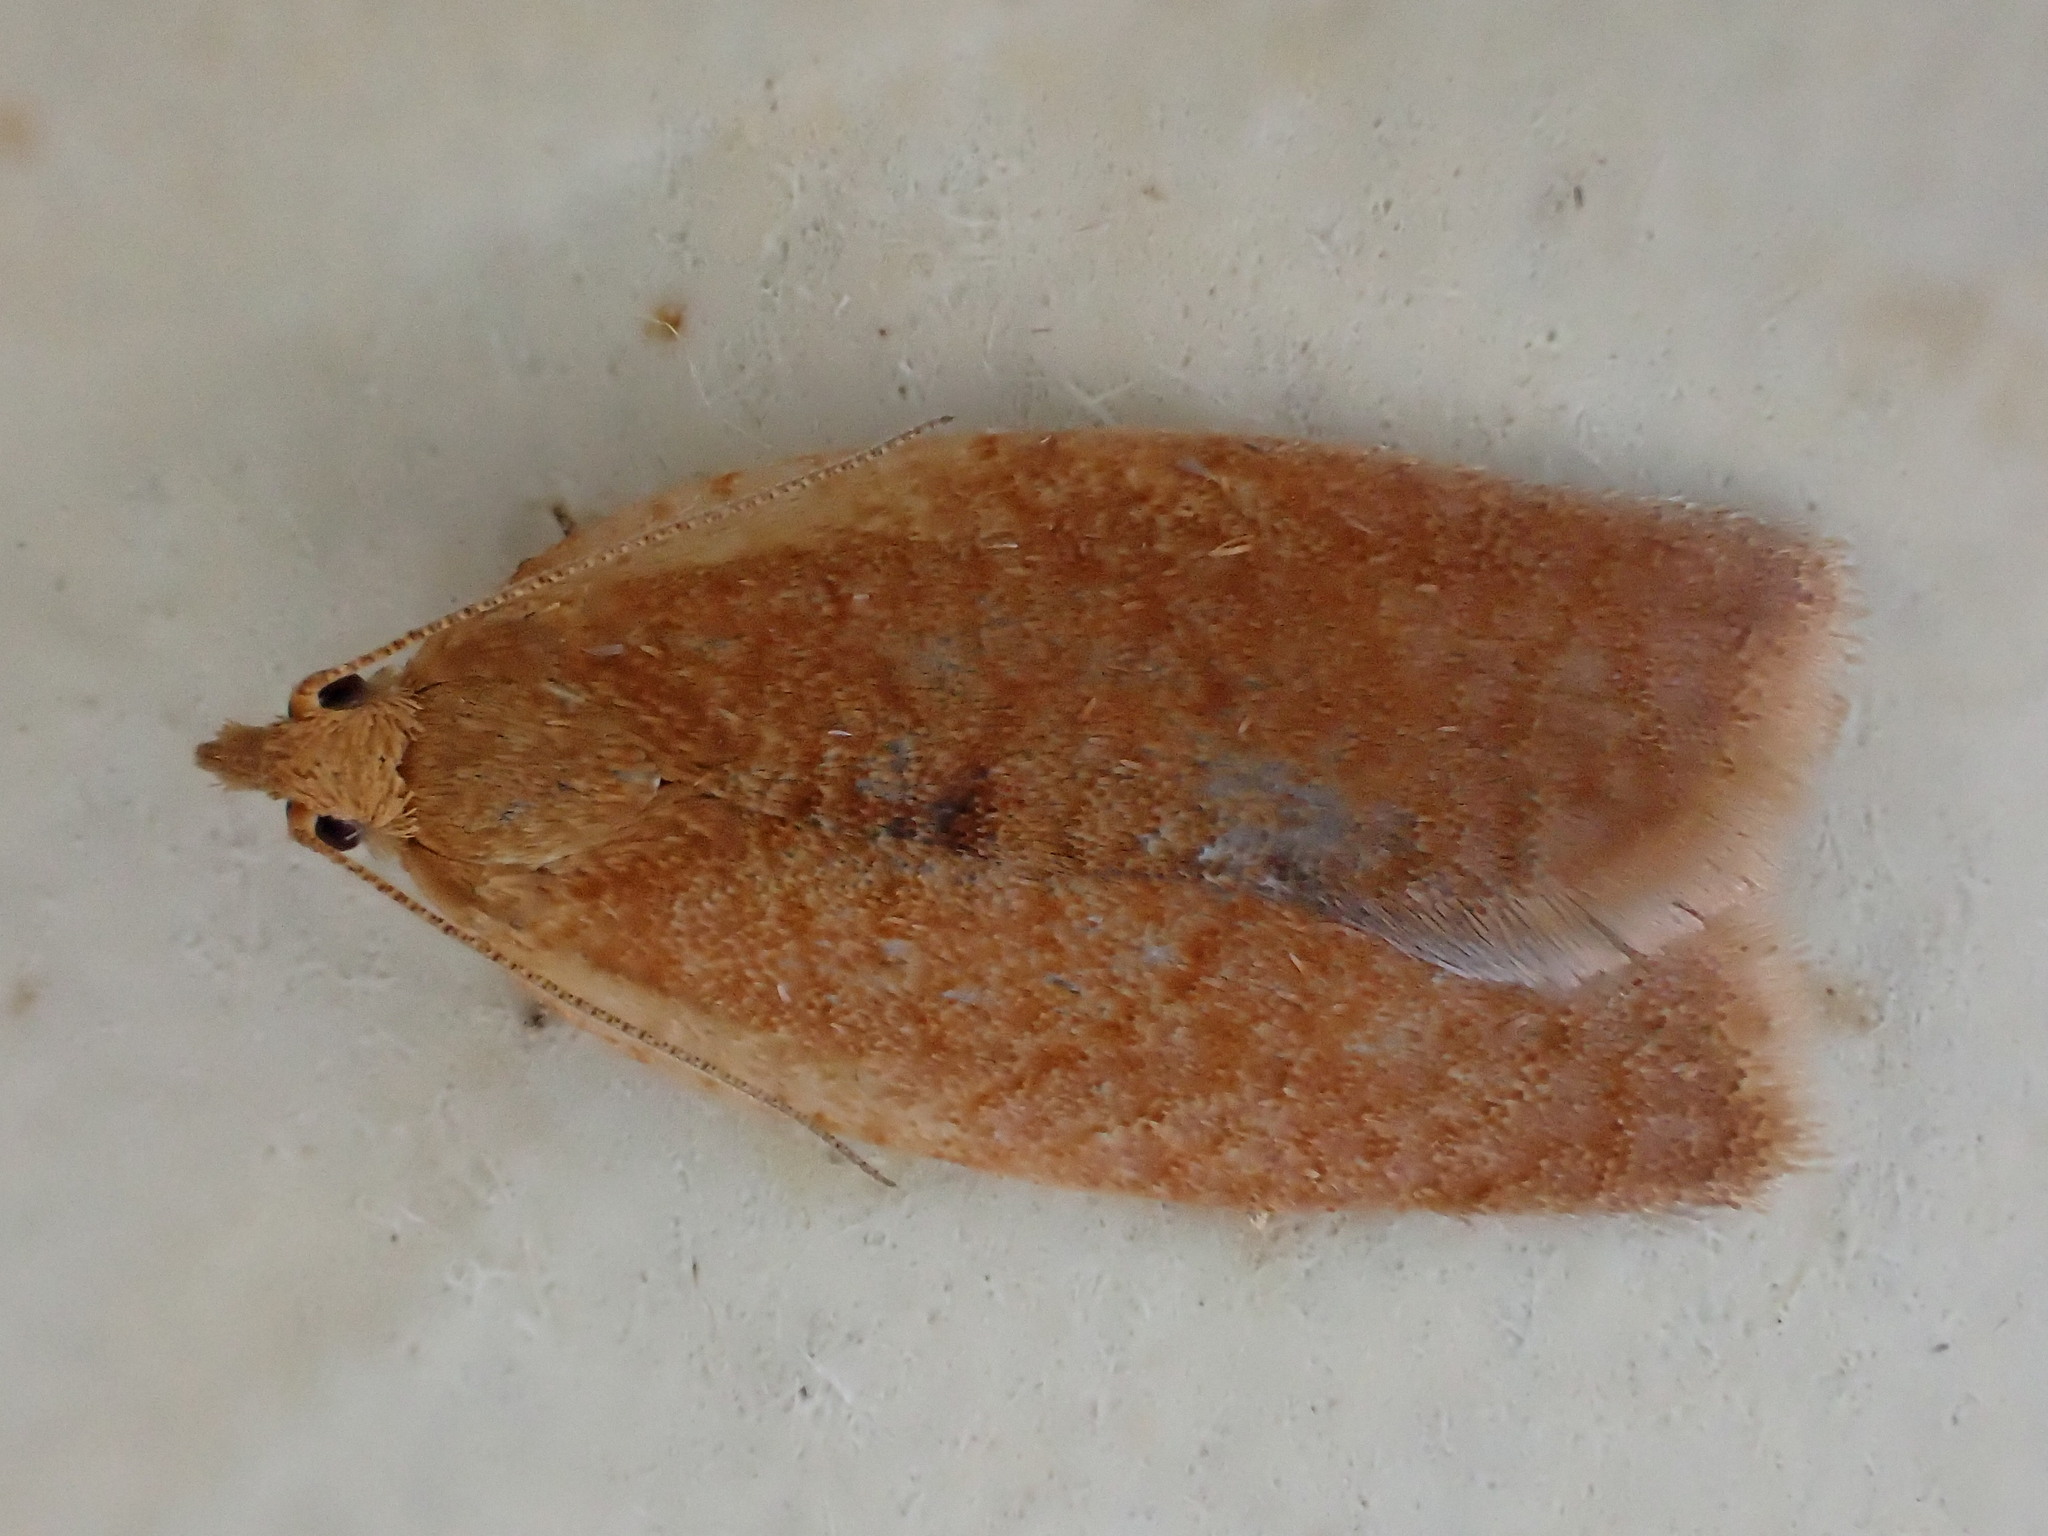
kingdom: Animalia
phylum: Arthropoda
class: Insecta
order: Lepidoptera
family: Tortricidae
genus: Clepsis
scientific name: Clepsis consimilana
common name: Privet tortrix
